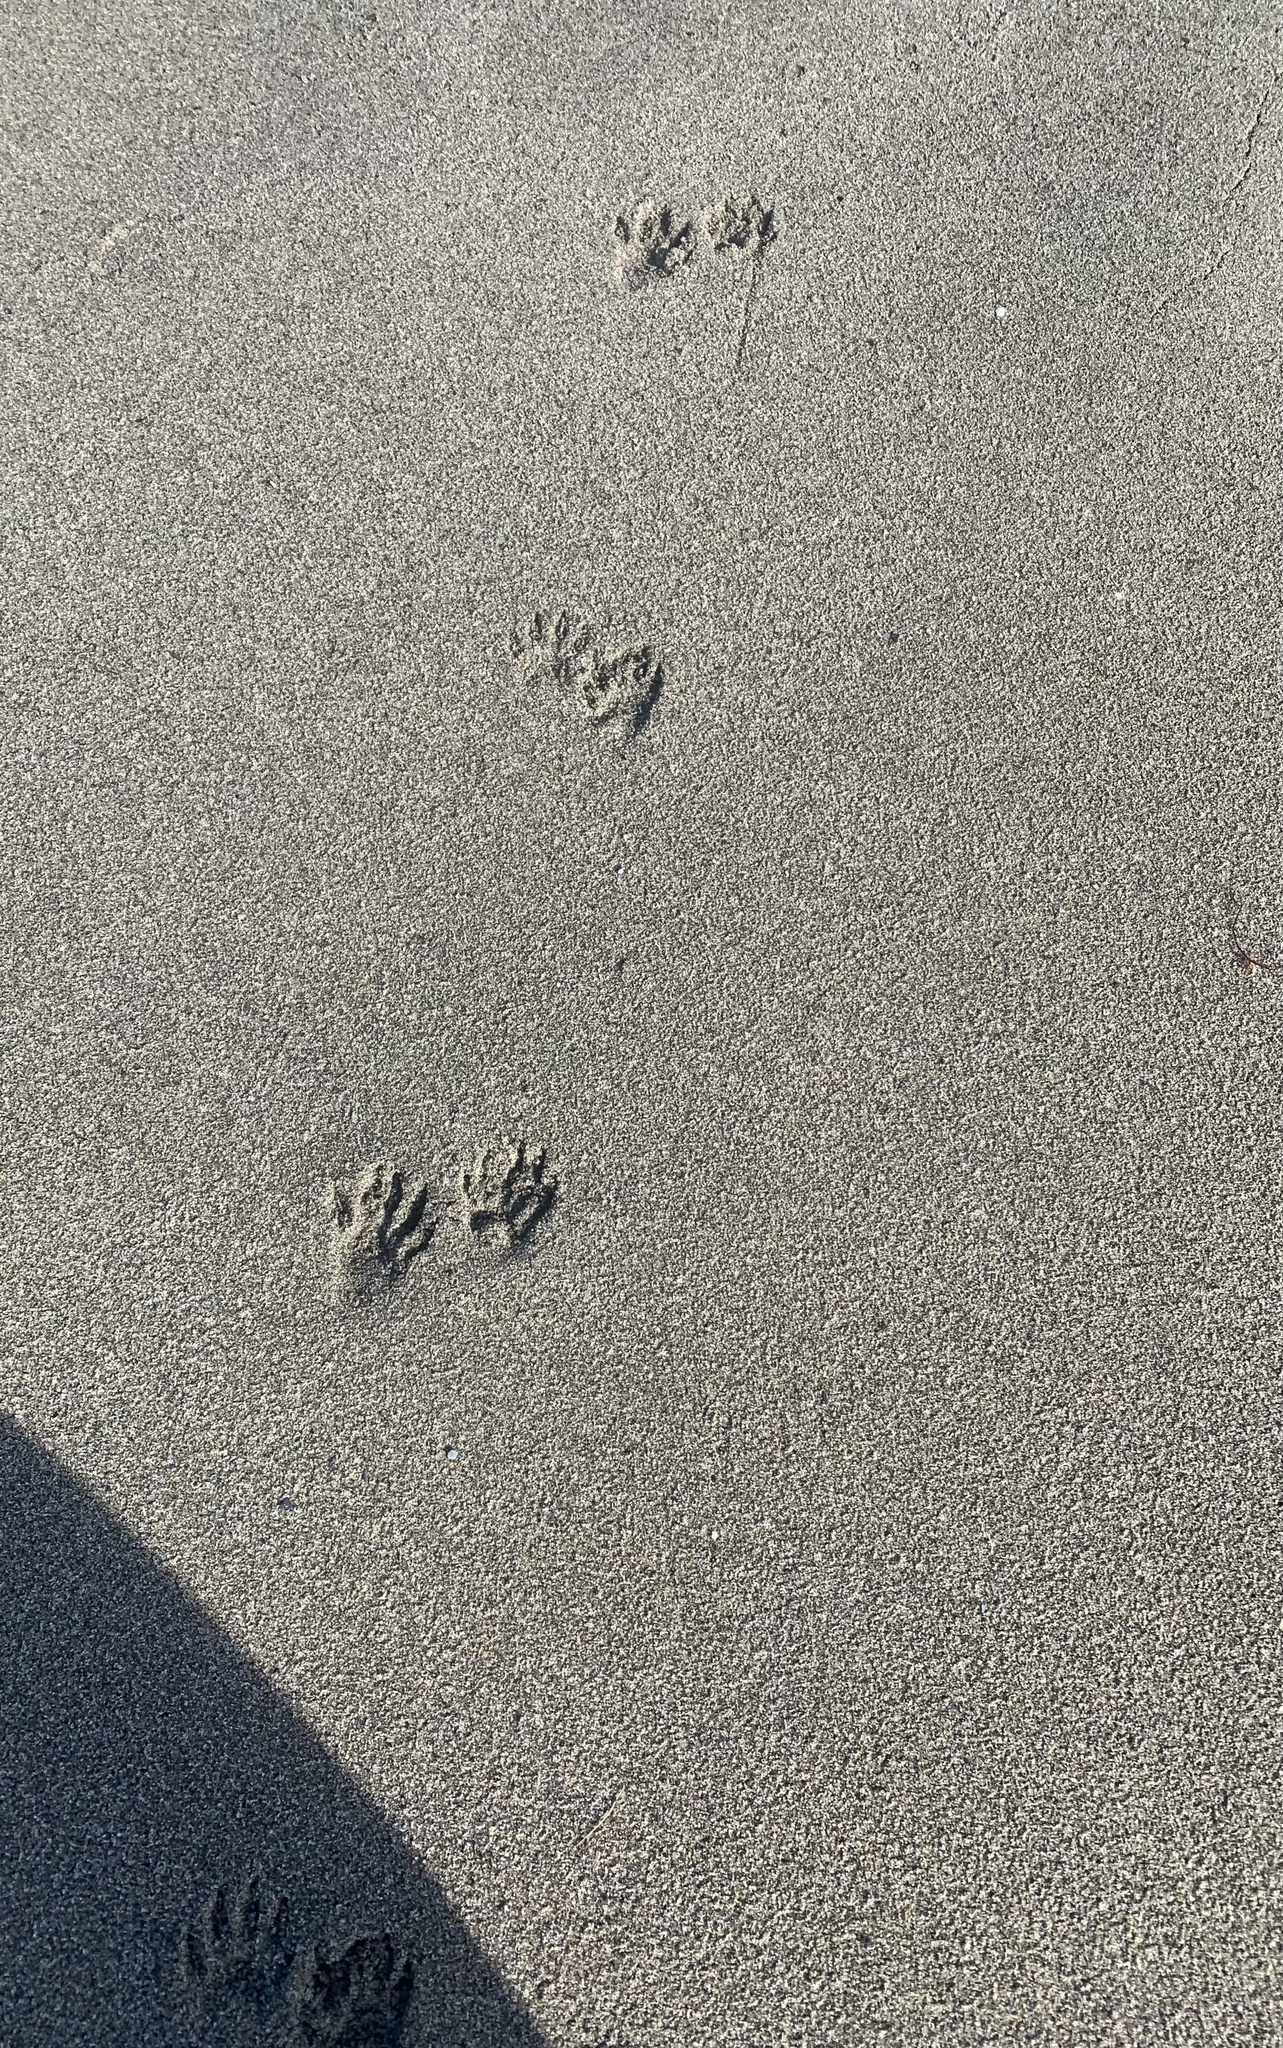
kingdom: Animalia
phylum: Chordata
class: Mammalia
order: Carnivora
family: Procyonidae
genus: Procyon
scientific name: Procyon lotor
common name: Raccoon
